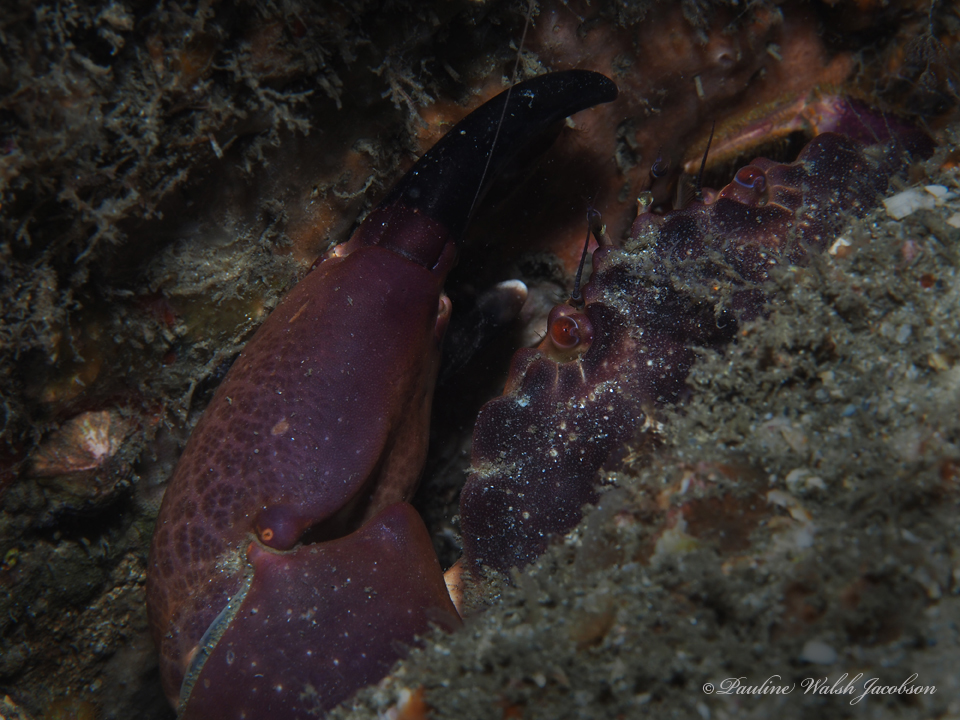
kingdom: Animalia
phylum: Arthropoda
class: Malacostraca
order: Decapoda
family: Menippidae
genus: Menippe
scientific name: Menippe mercenaria
